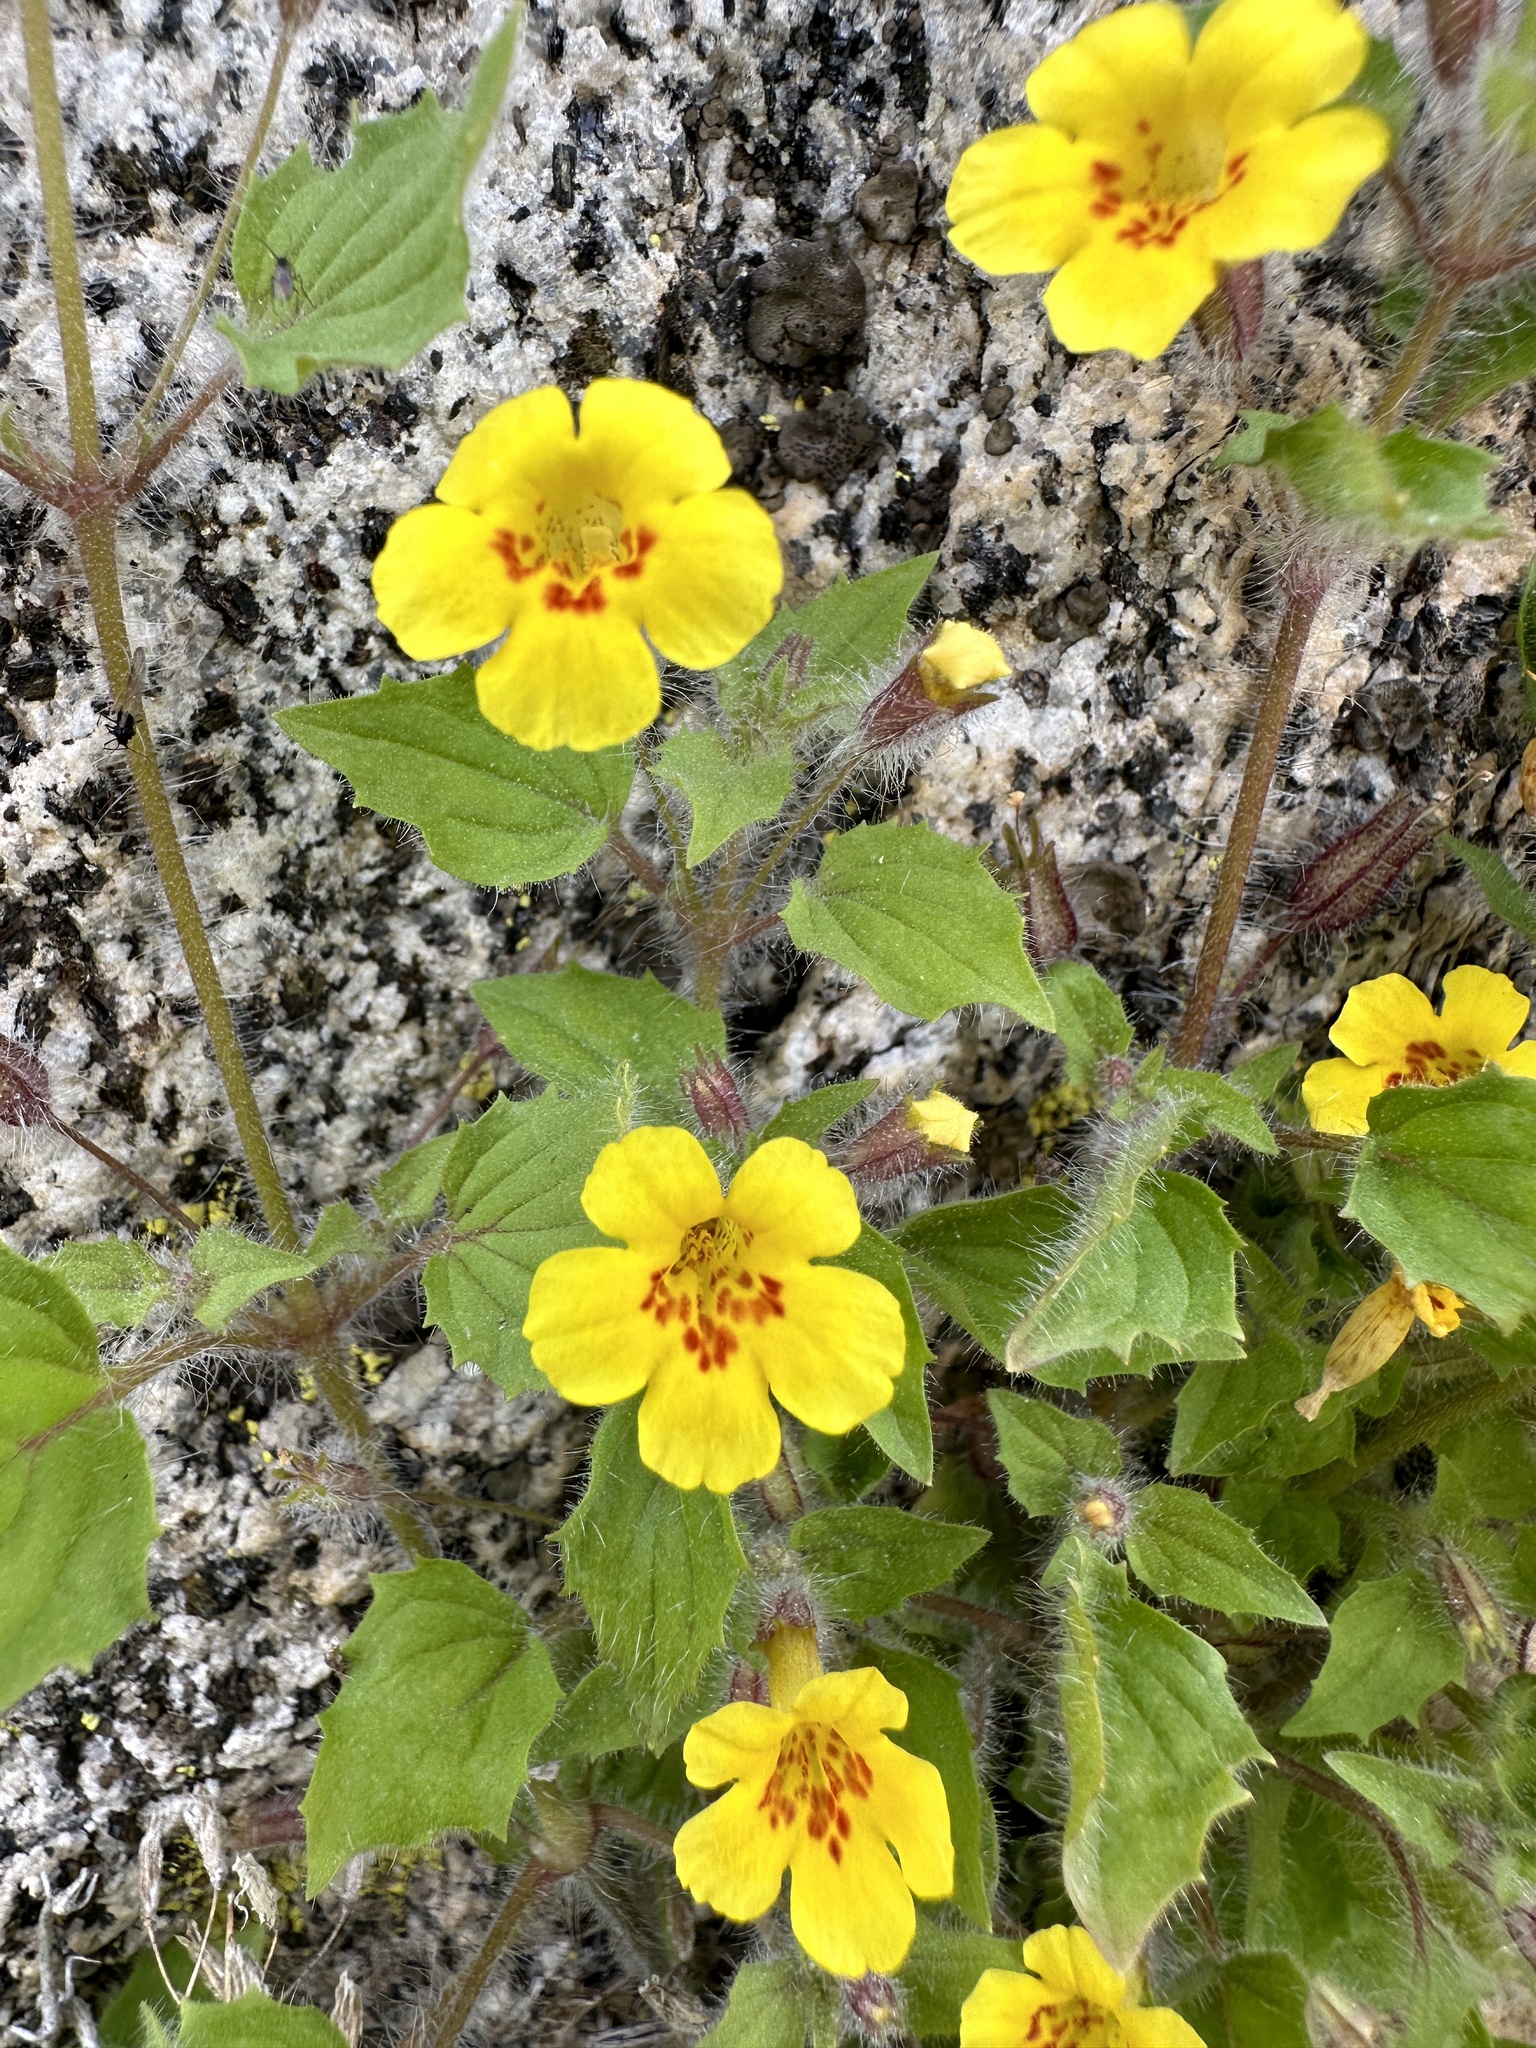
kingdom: Plantae
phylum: Tracheophyta
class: Magnoliopsida
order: Lamiales
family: Phrymaceae
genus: Erythranthe
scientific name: Erythranthe geniculata
